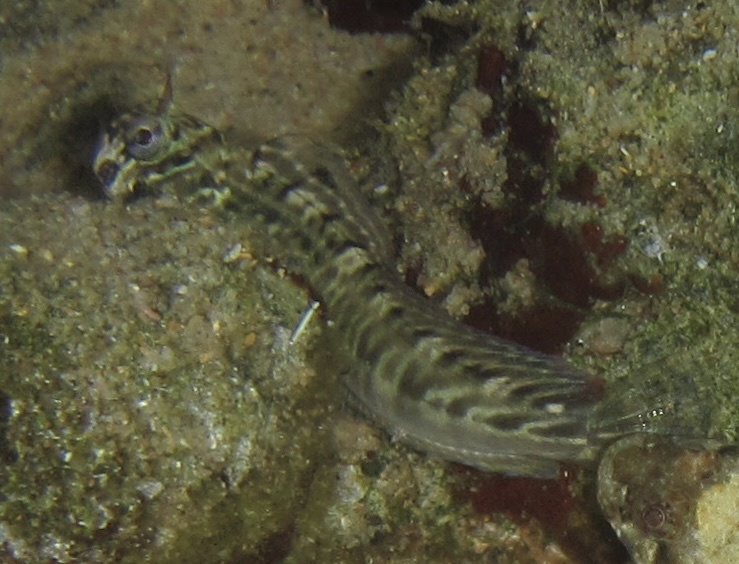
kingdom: Animalia
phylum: Chordata
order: Perciformes
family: Blenniidae
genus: Istiblennius
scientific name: Istiblennius edentulus
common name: Rippled rockskipper
